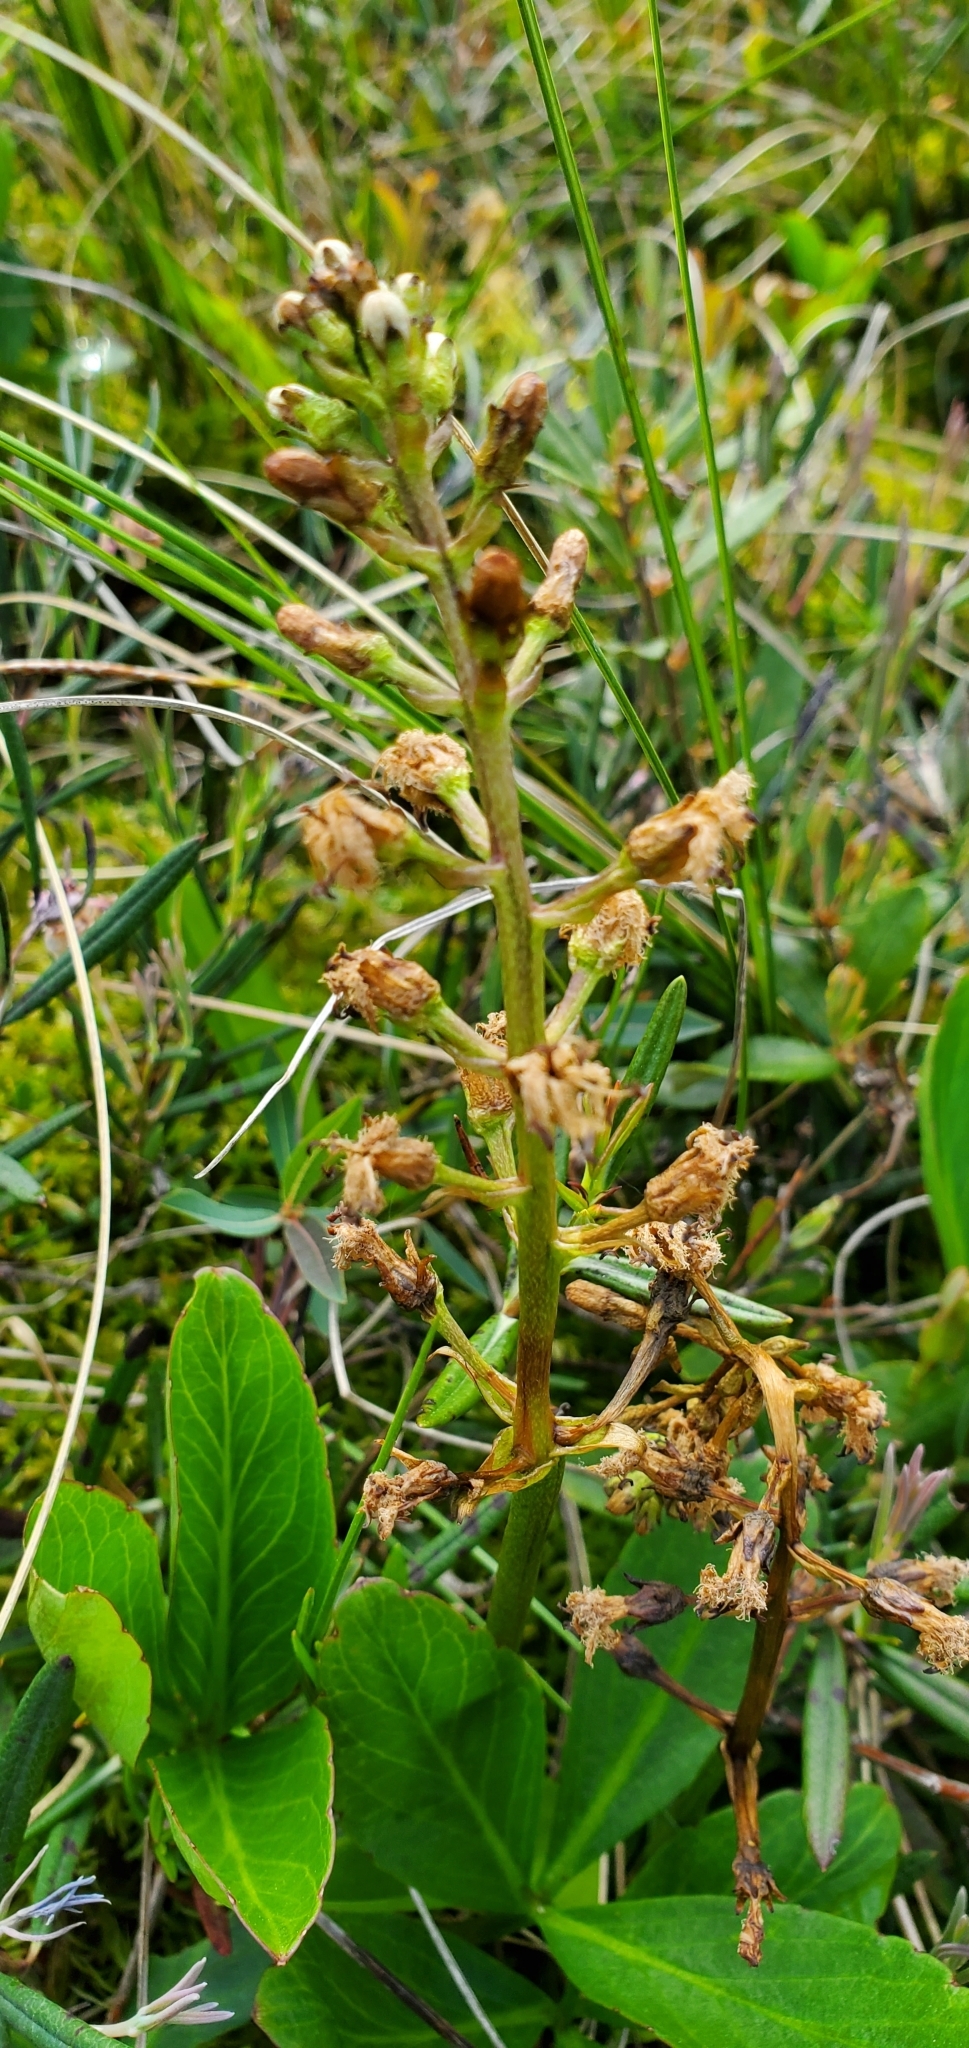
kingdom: Plantae
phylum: Tracheophyta
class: Magnoliopsida
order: Asterales
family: Menyanthaceae
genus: Menyanthes
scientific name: Menyanthes trifoliata
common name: Bogbean
